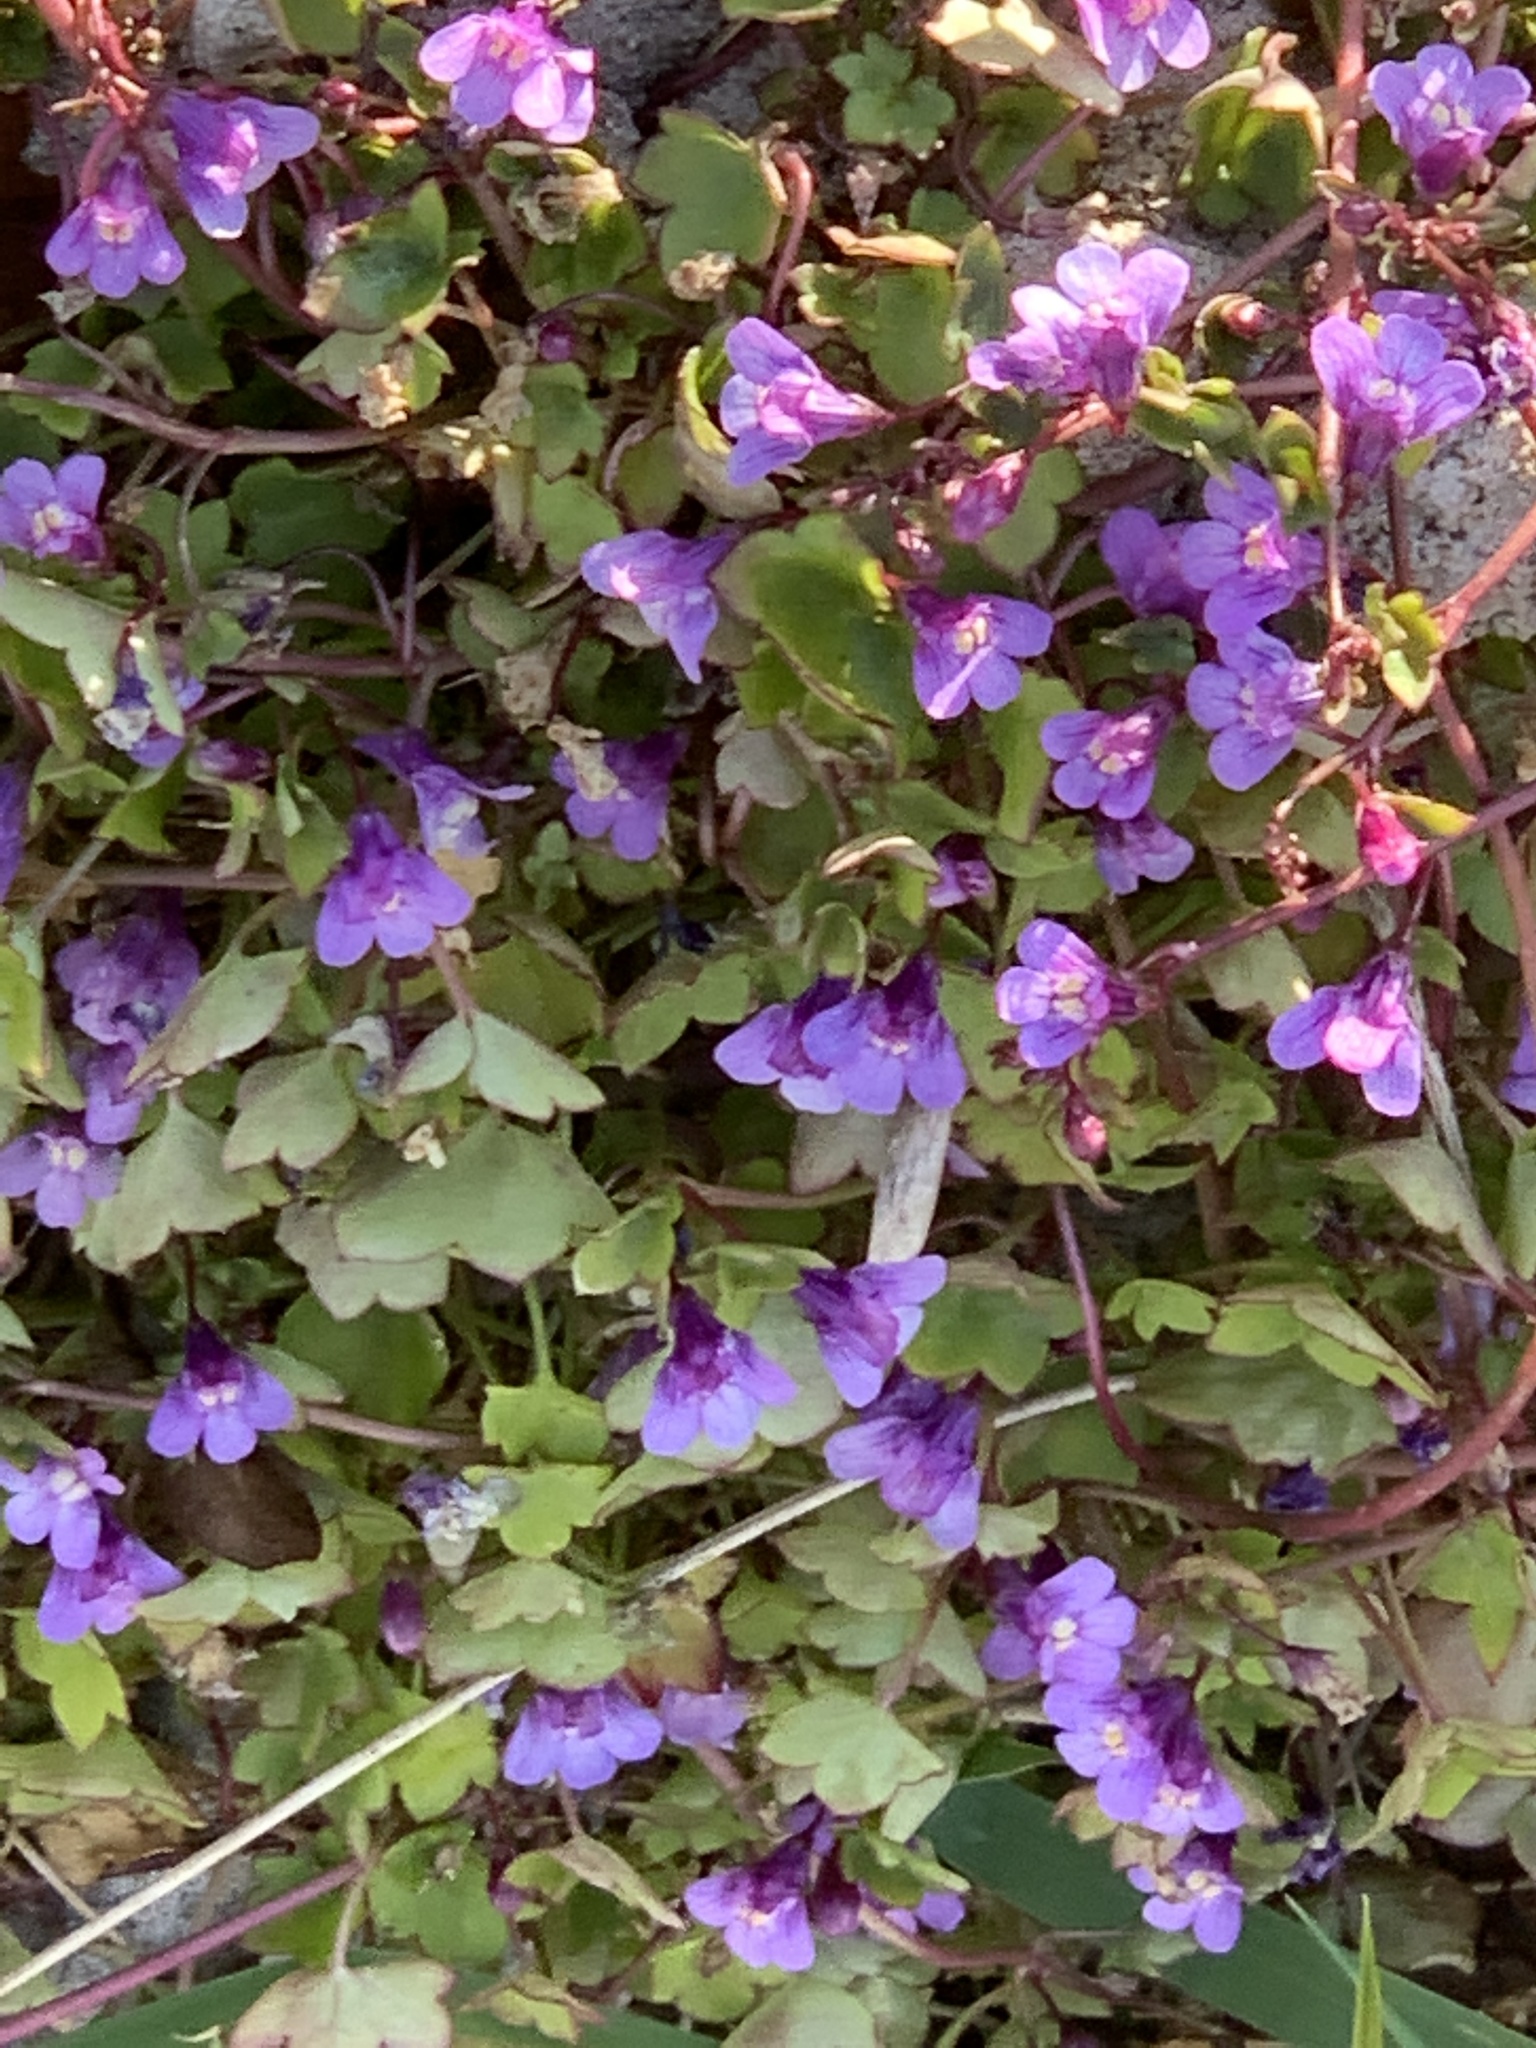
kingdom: Plantae
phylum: Tracheophyta
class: Magnoliopsida
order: Lamiales
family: Plantaginaceae
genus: Cymbalaria
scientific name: Cymbalaria muralis
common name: Ivy-leaved toadflax
